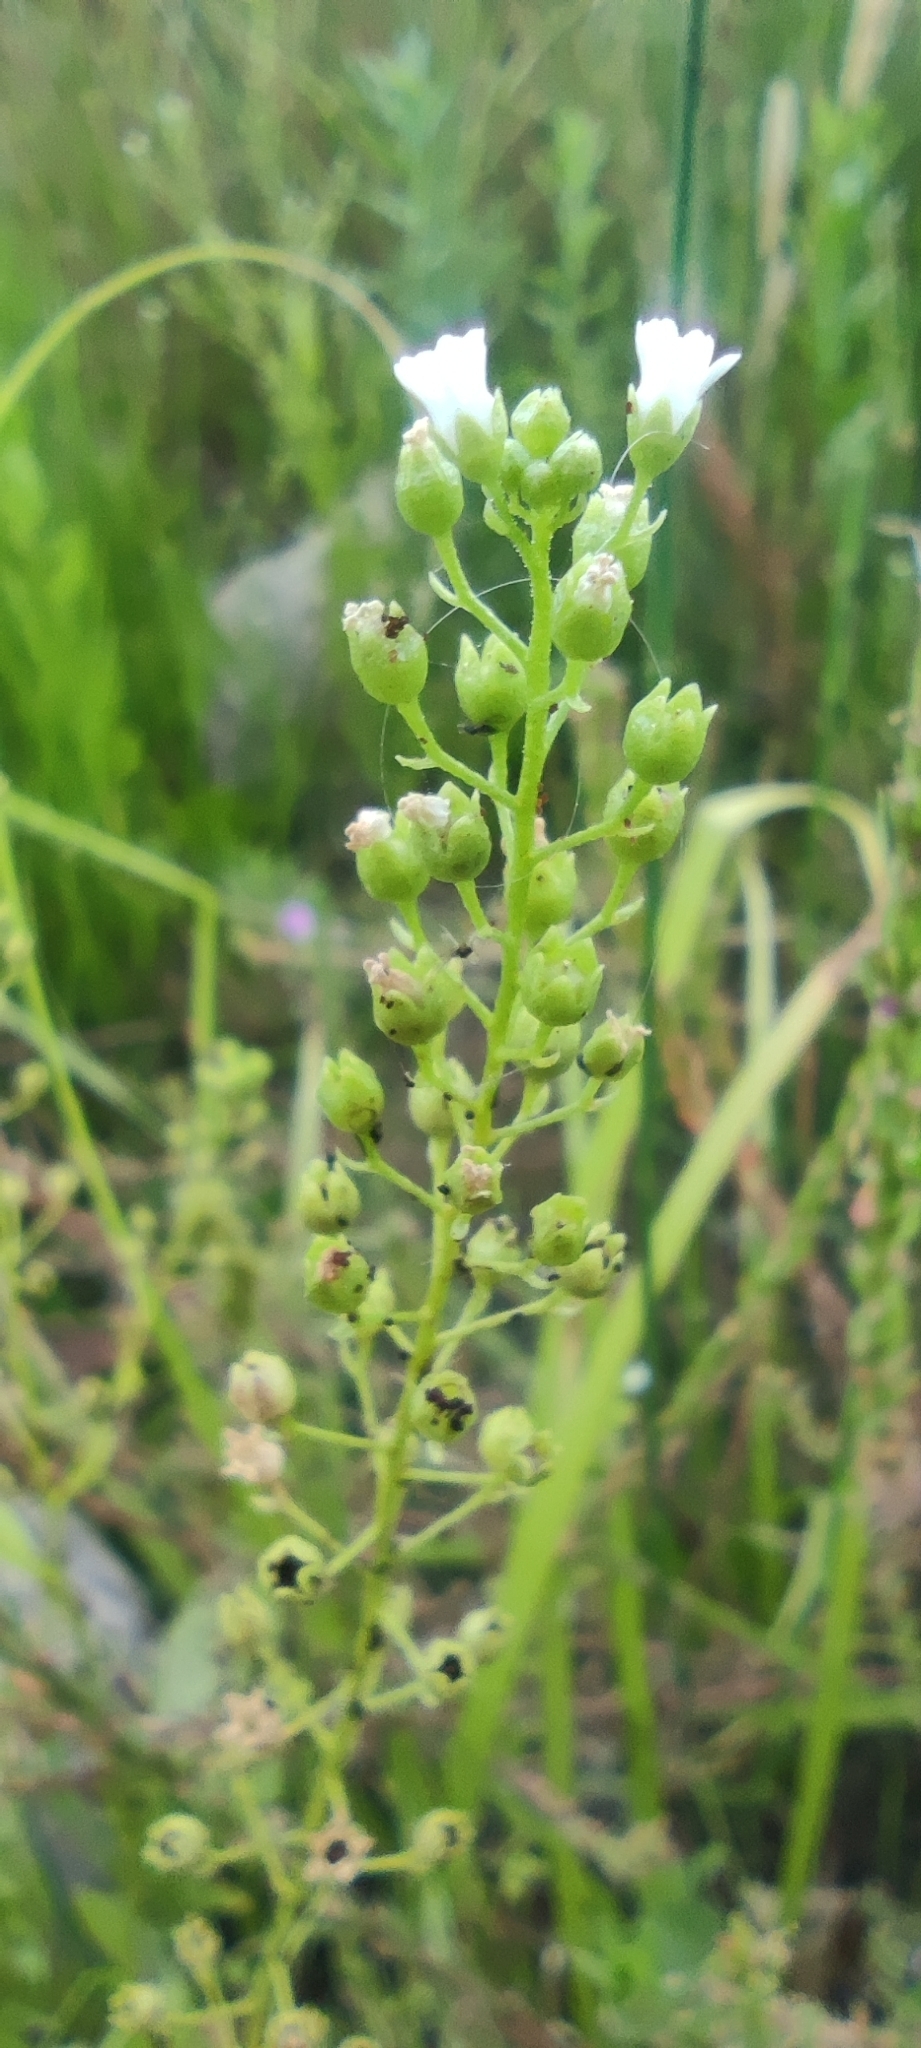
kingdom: Plantae
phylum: Tracheophyta
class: Magnoliopsida
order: Ericales
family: Primulaceae
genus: Samolus
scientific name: Samolus valerandi
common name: Brookweed
